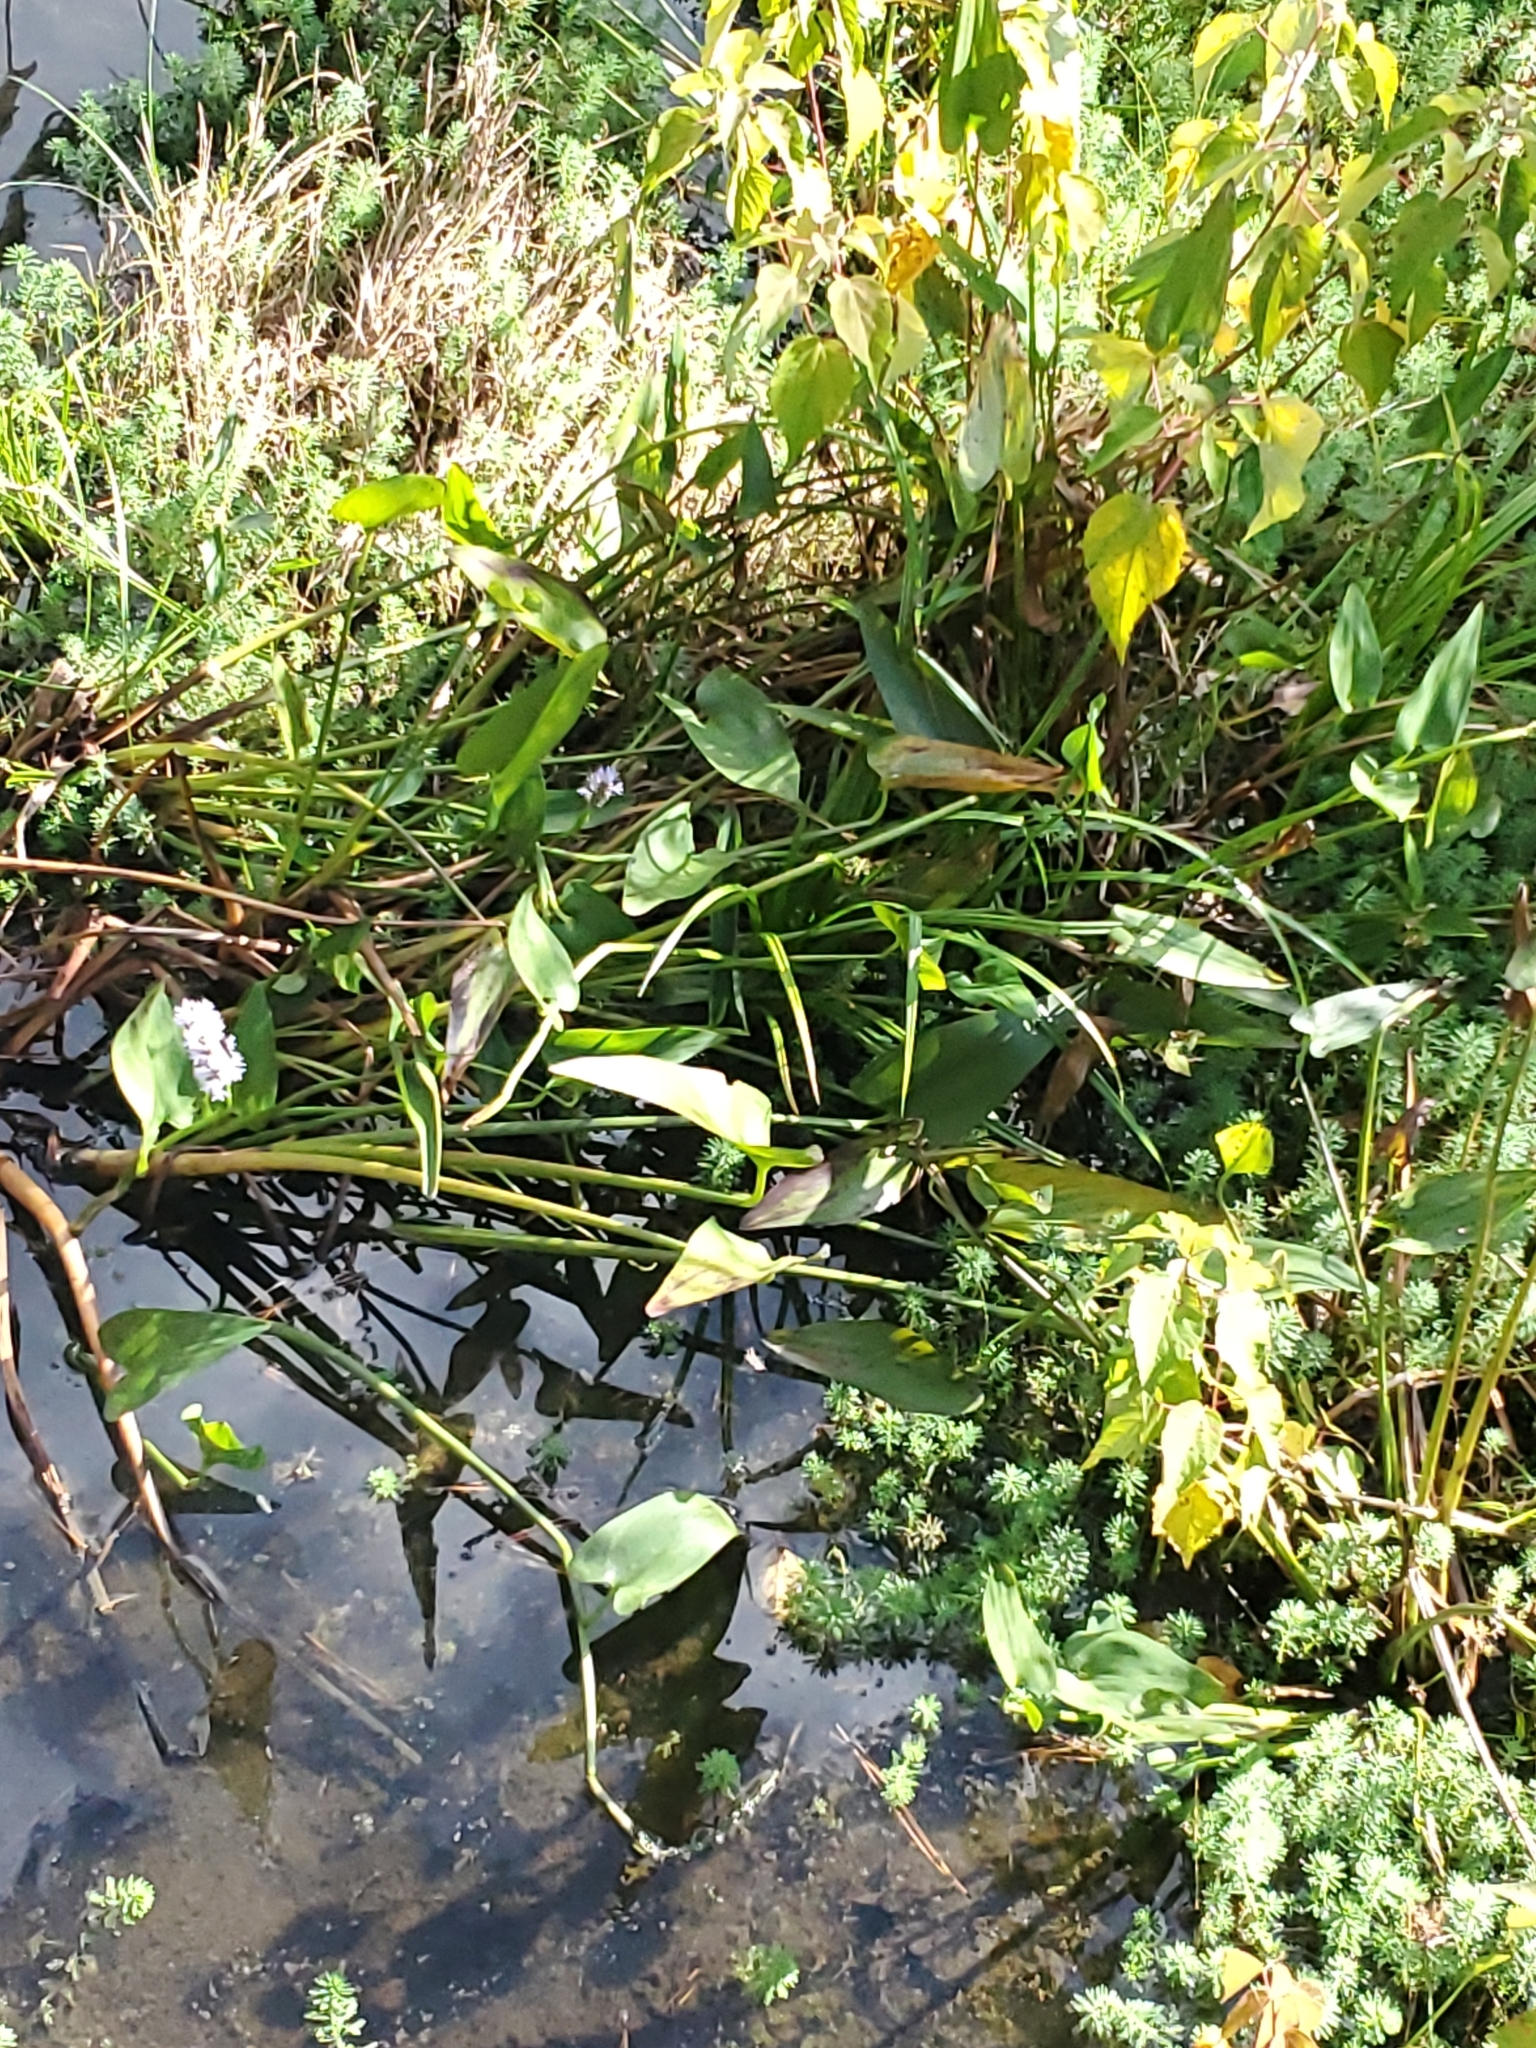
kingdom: Plantae
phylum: Tracheophyta
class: Liliopsida
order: Commelinales
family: Pontederiaceae
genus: Pontederia
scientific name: Pontederia cordata
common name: Pickerelweed
